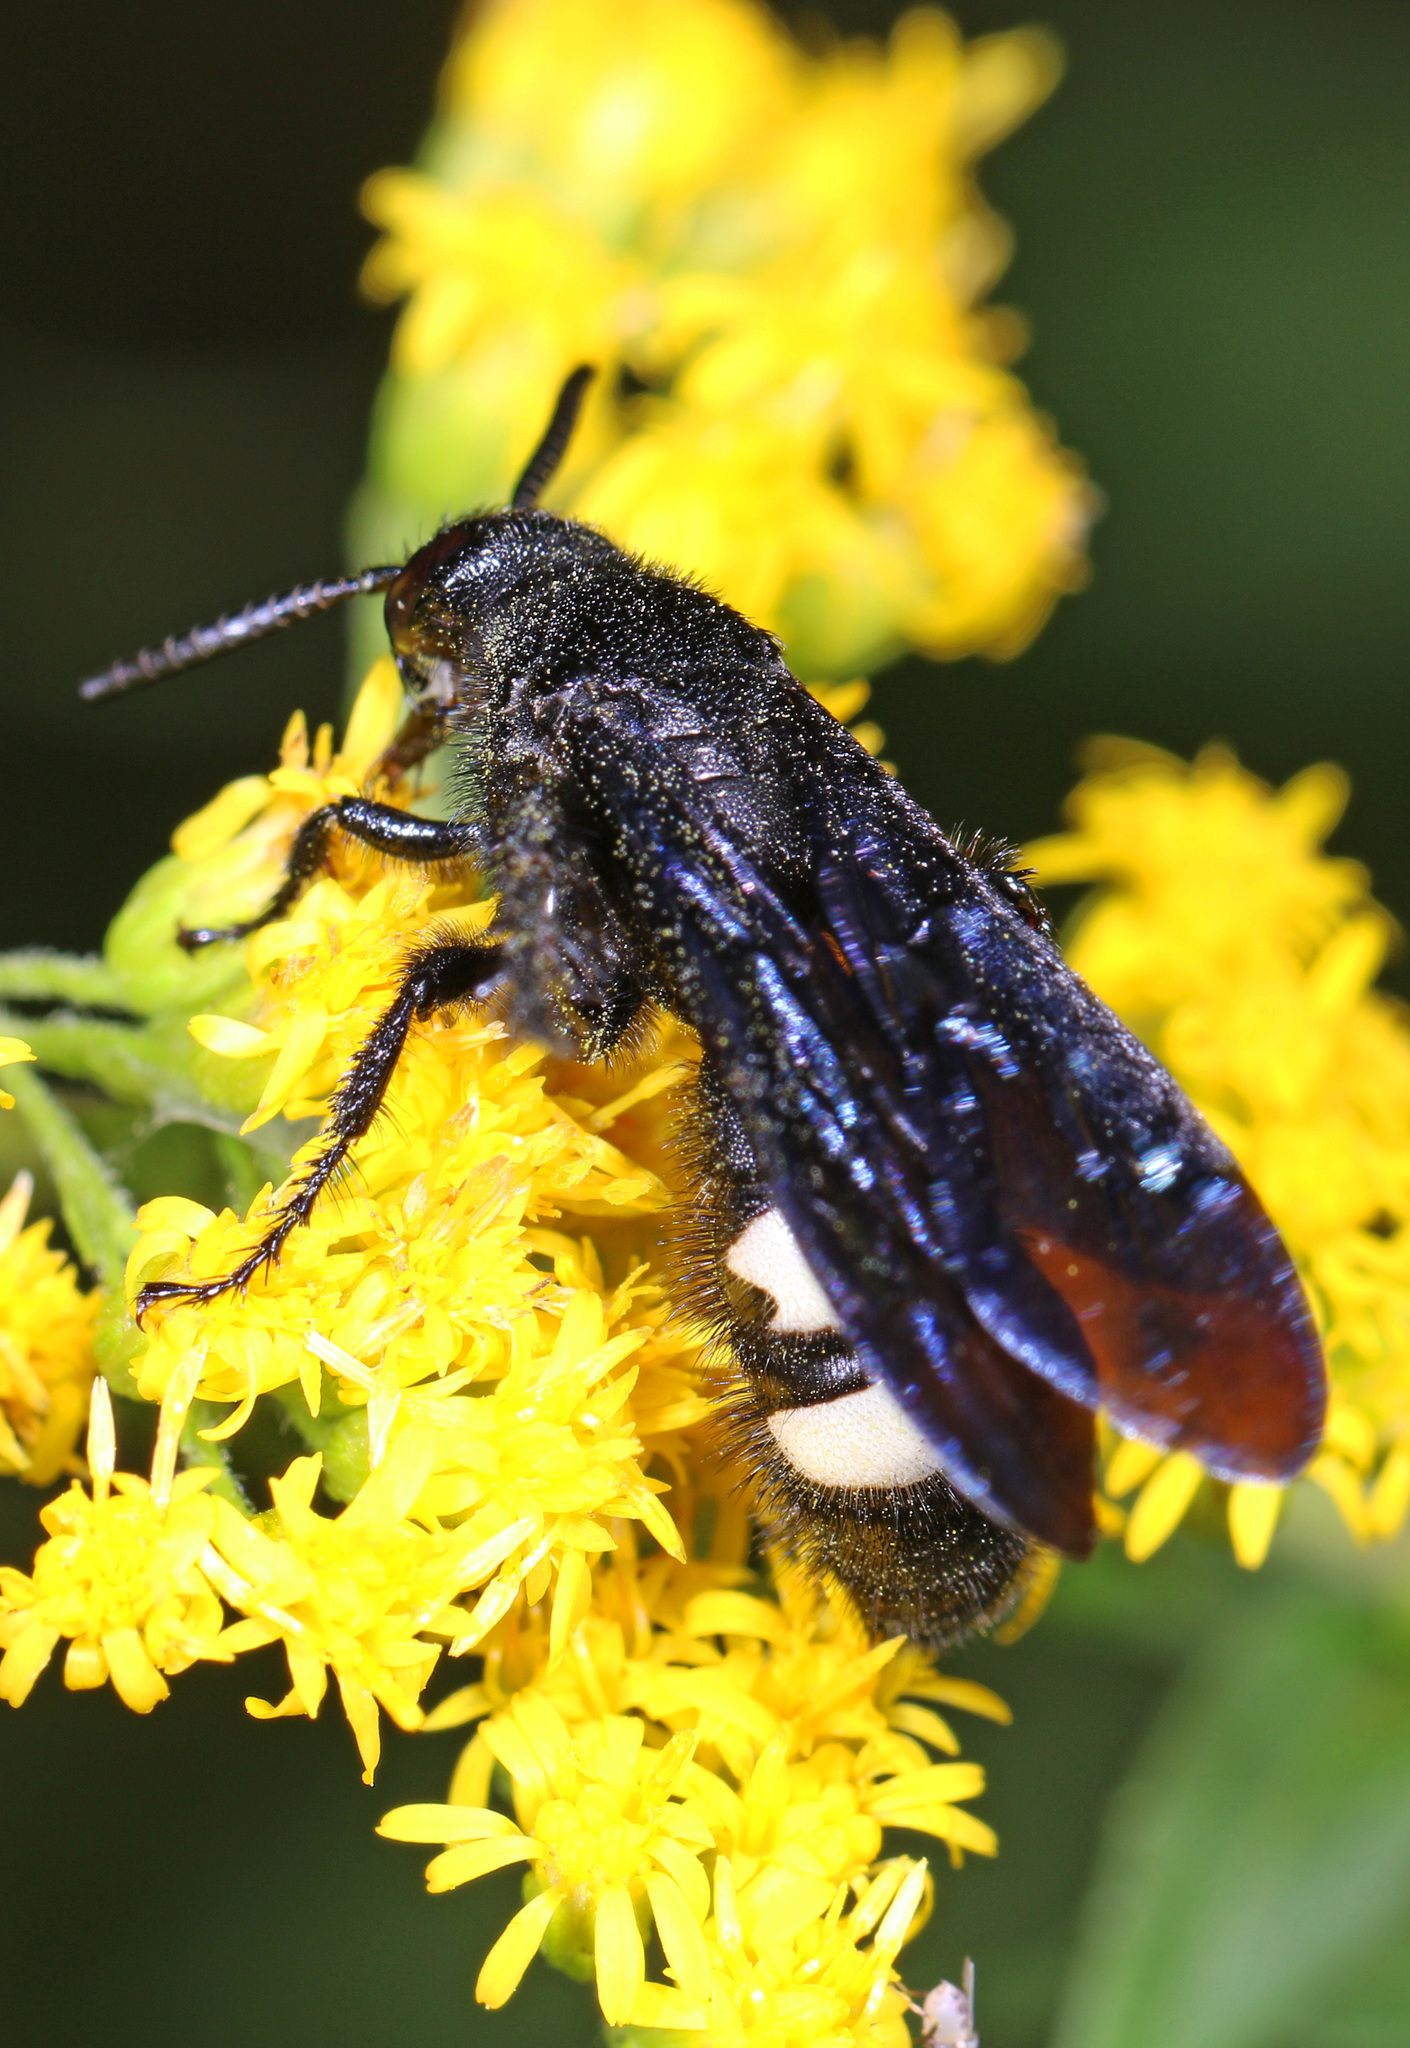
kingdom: Animalia
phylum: Arthropoda
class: Insecta
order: Hymenoptera
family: Scoliidae
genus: Scolia
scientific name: Scolia bicincta
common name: Double-banded scoliid wasp
